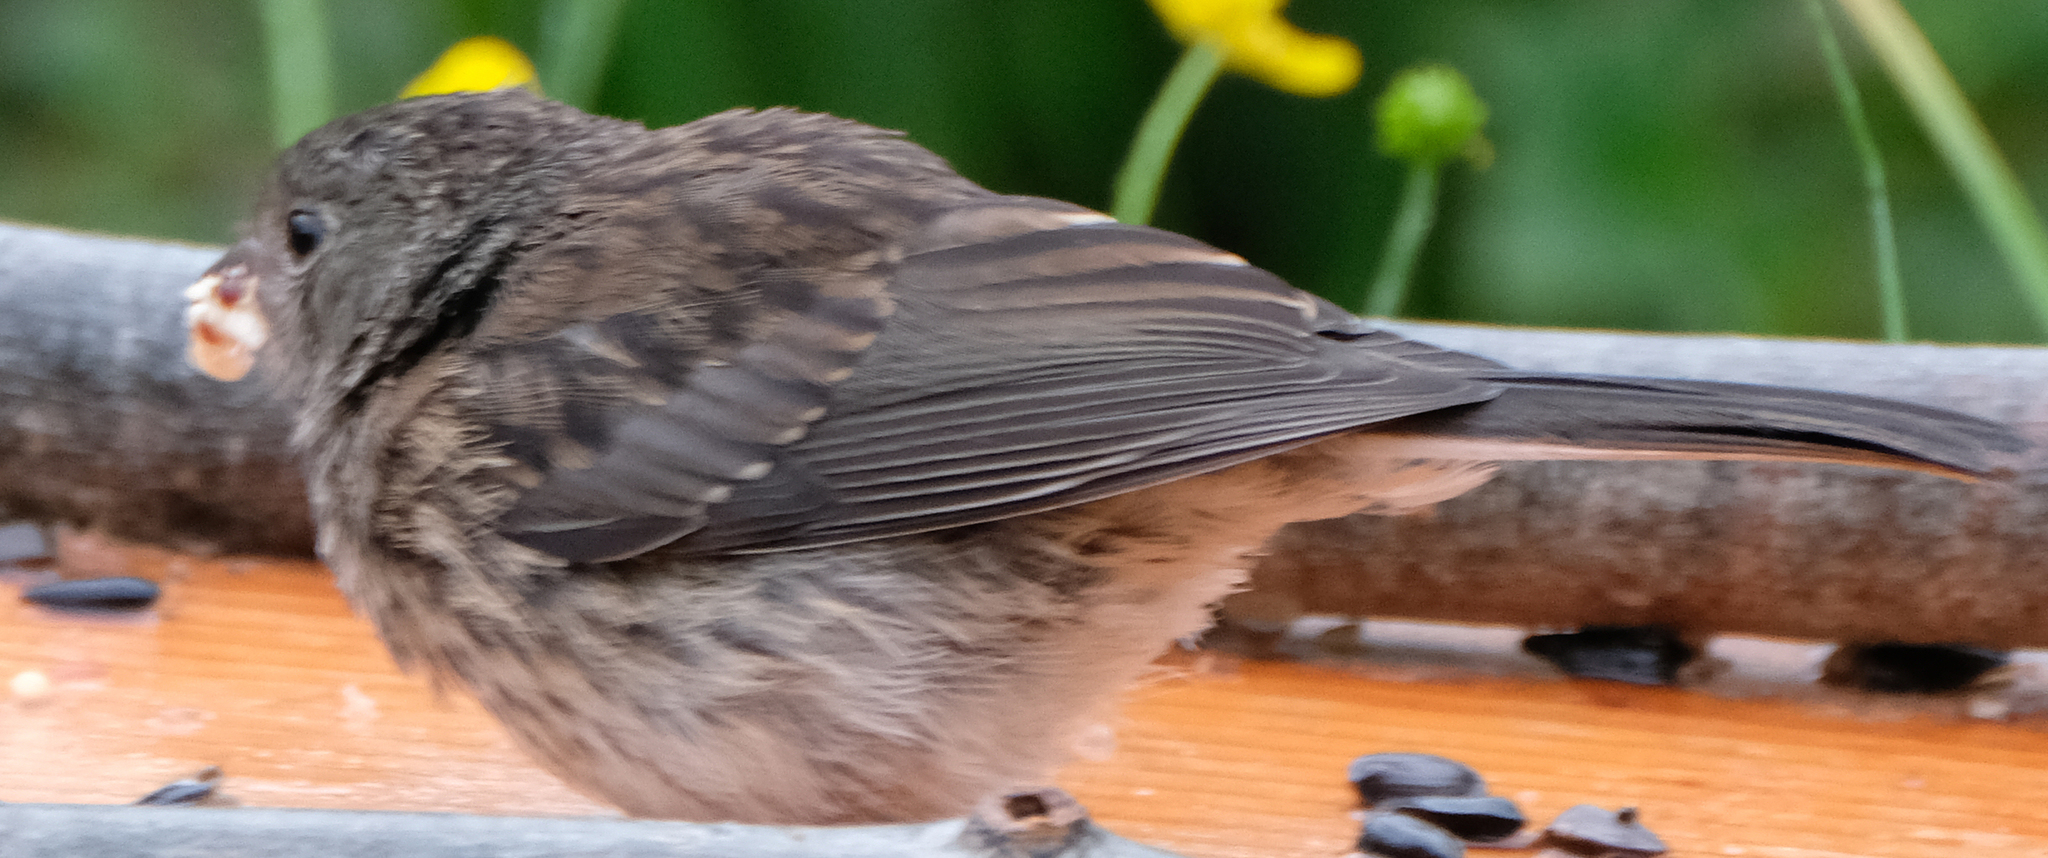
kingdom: Animalia
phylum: Chordata
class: Aves
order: Passeriformes
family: Passerellidae
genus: Junco
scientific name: Junco hyemalis
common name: Dark-eyed junco
